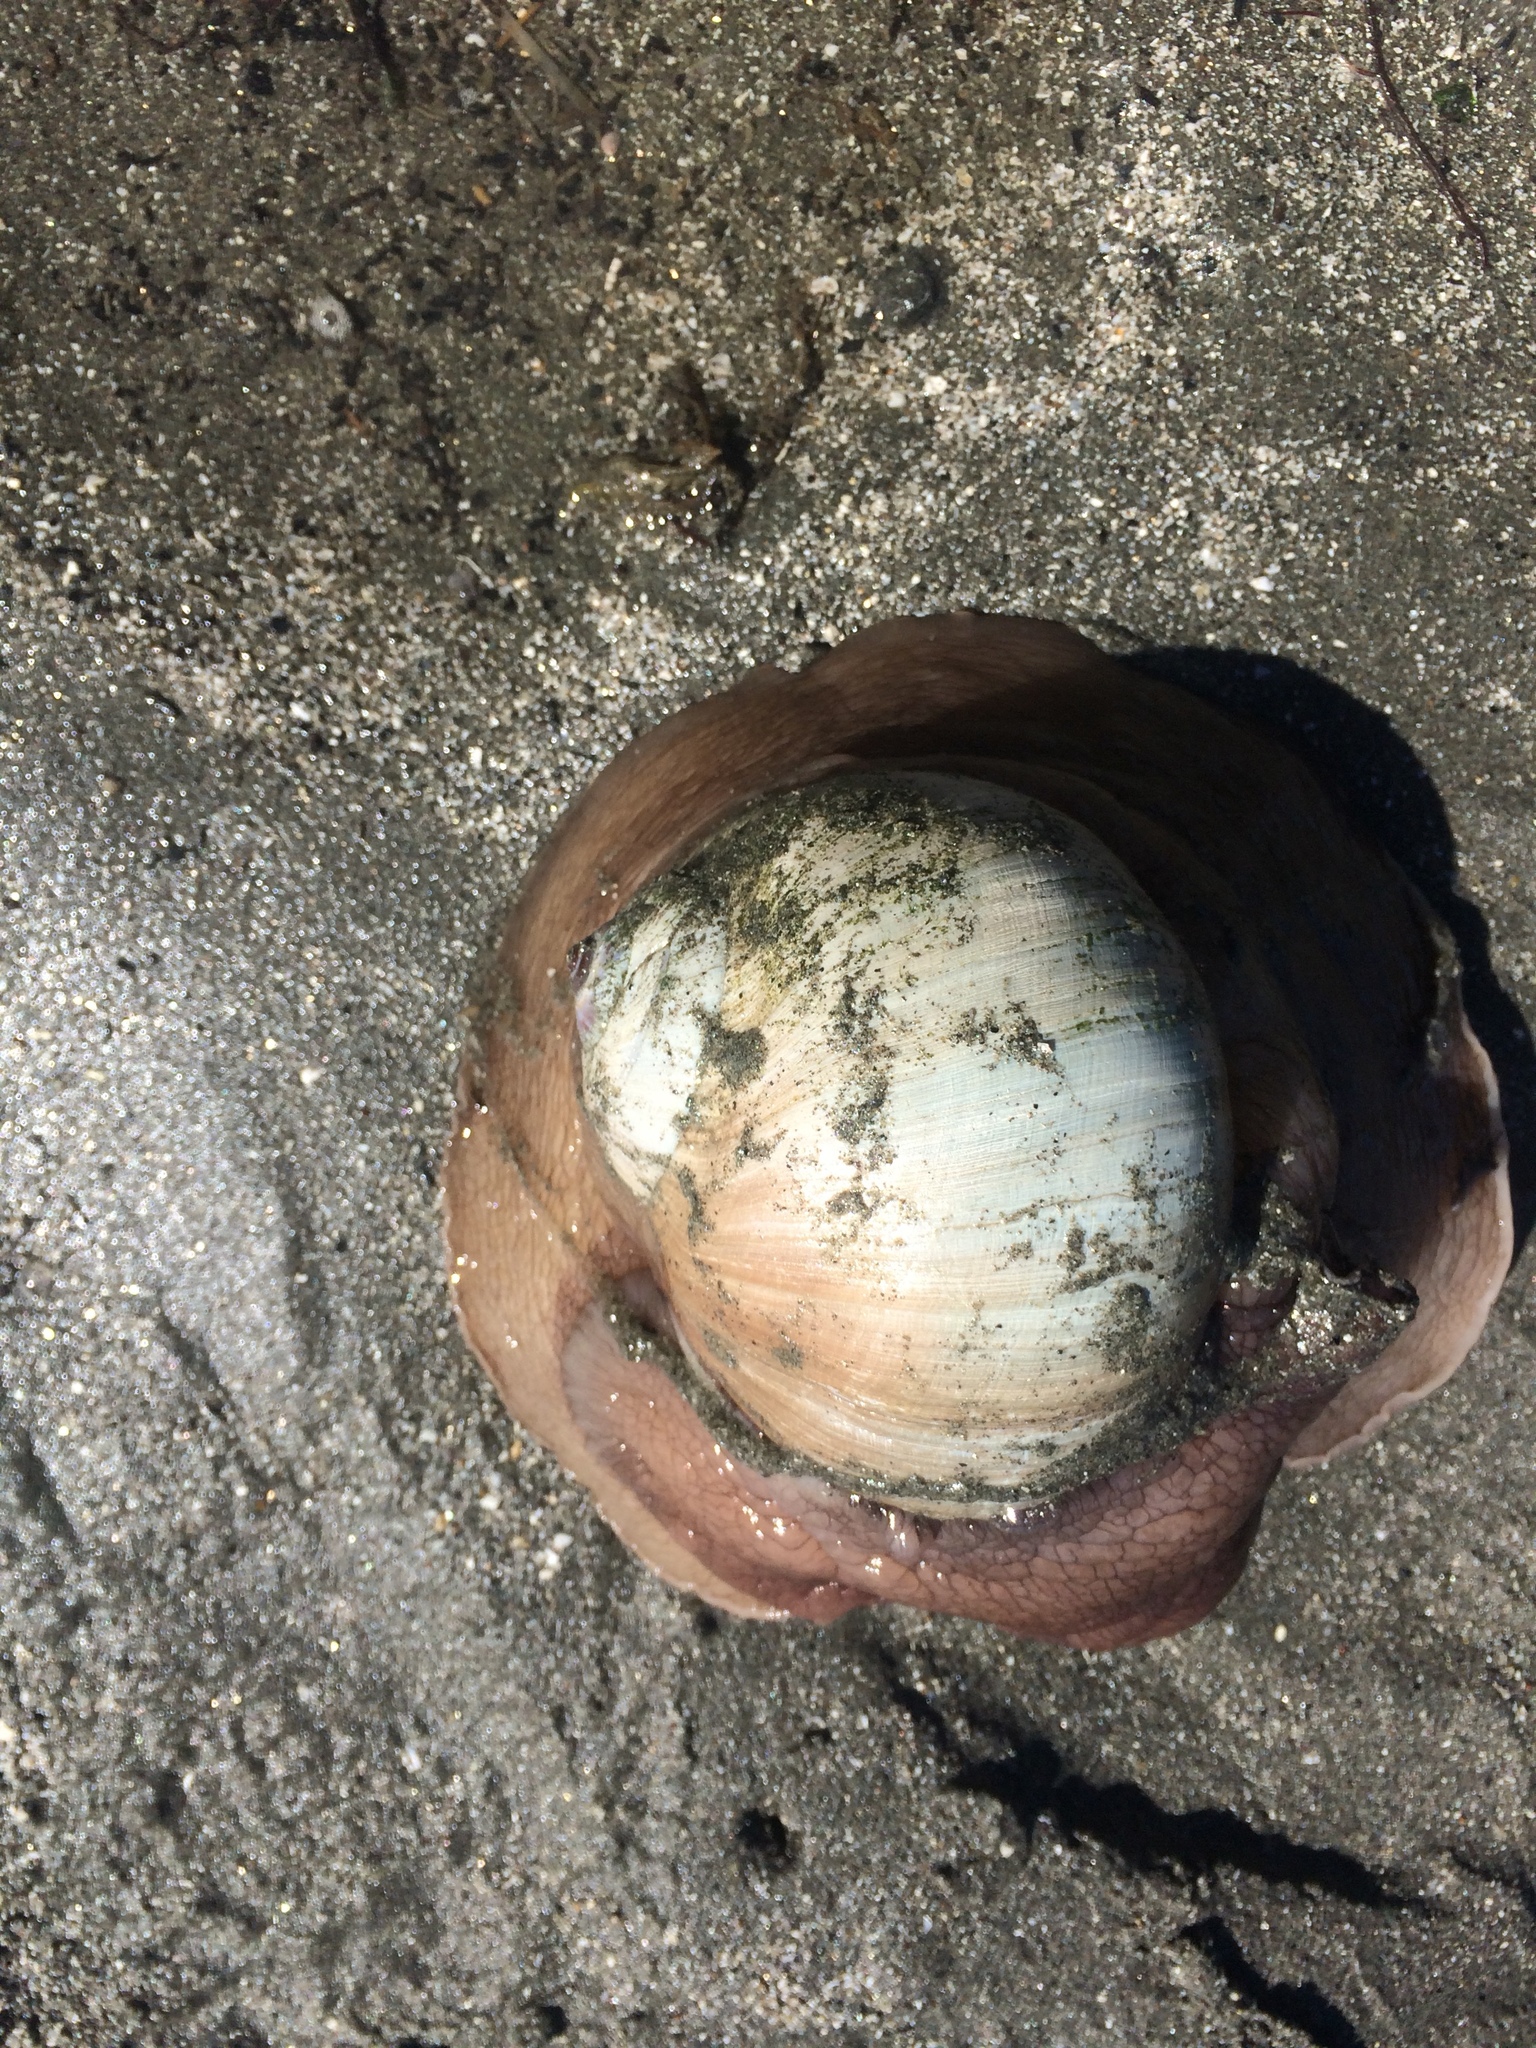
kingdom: Animalia
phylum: Mollusca
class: Gastropoda
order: Littorinimorpha
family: Naticidae
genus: Neverita
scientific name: Neverita lewisii
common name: Lewis' moonsnail
